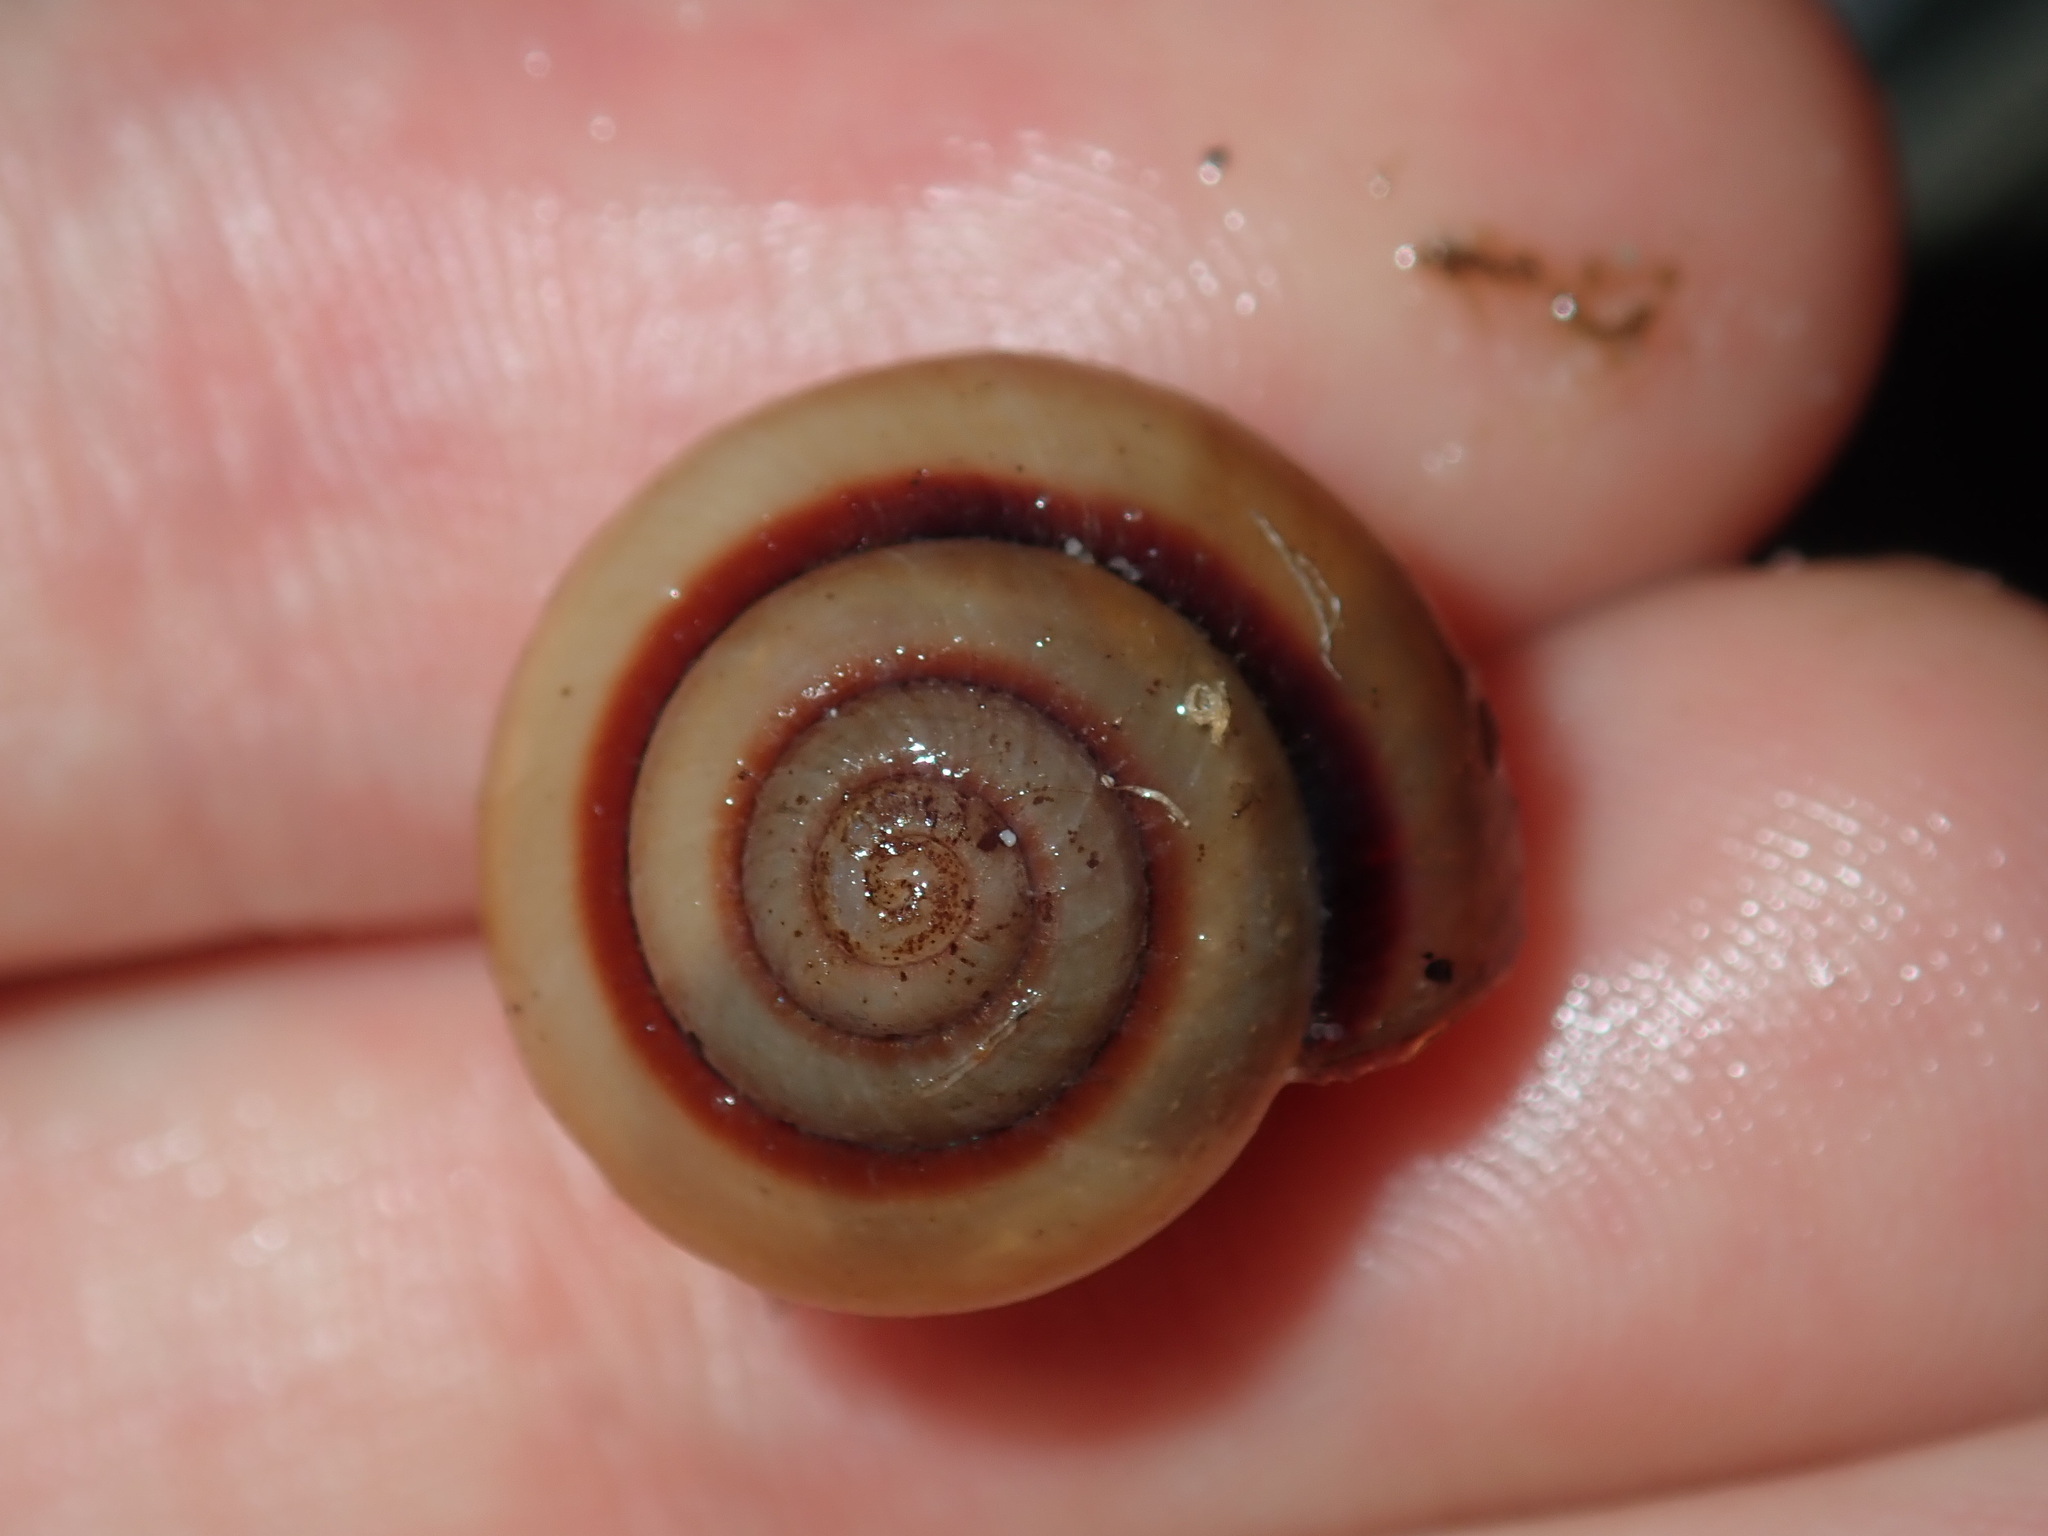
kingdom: Animalia
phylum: Mollusca
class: Gastropoda
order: Stylommatophora
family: Camaenidae
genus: Galadistes
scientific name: Galadistes akubra
